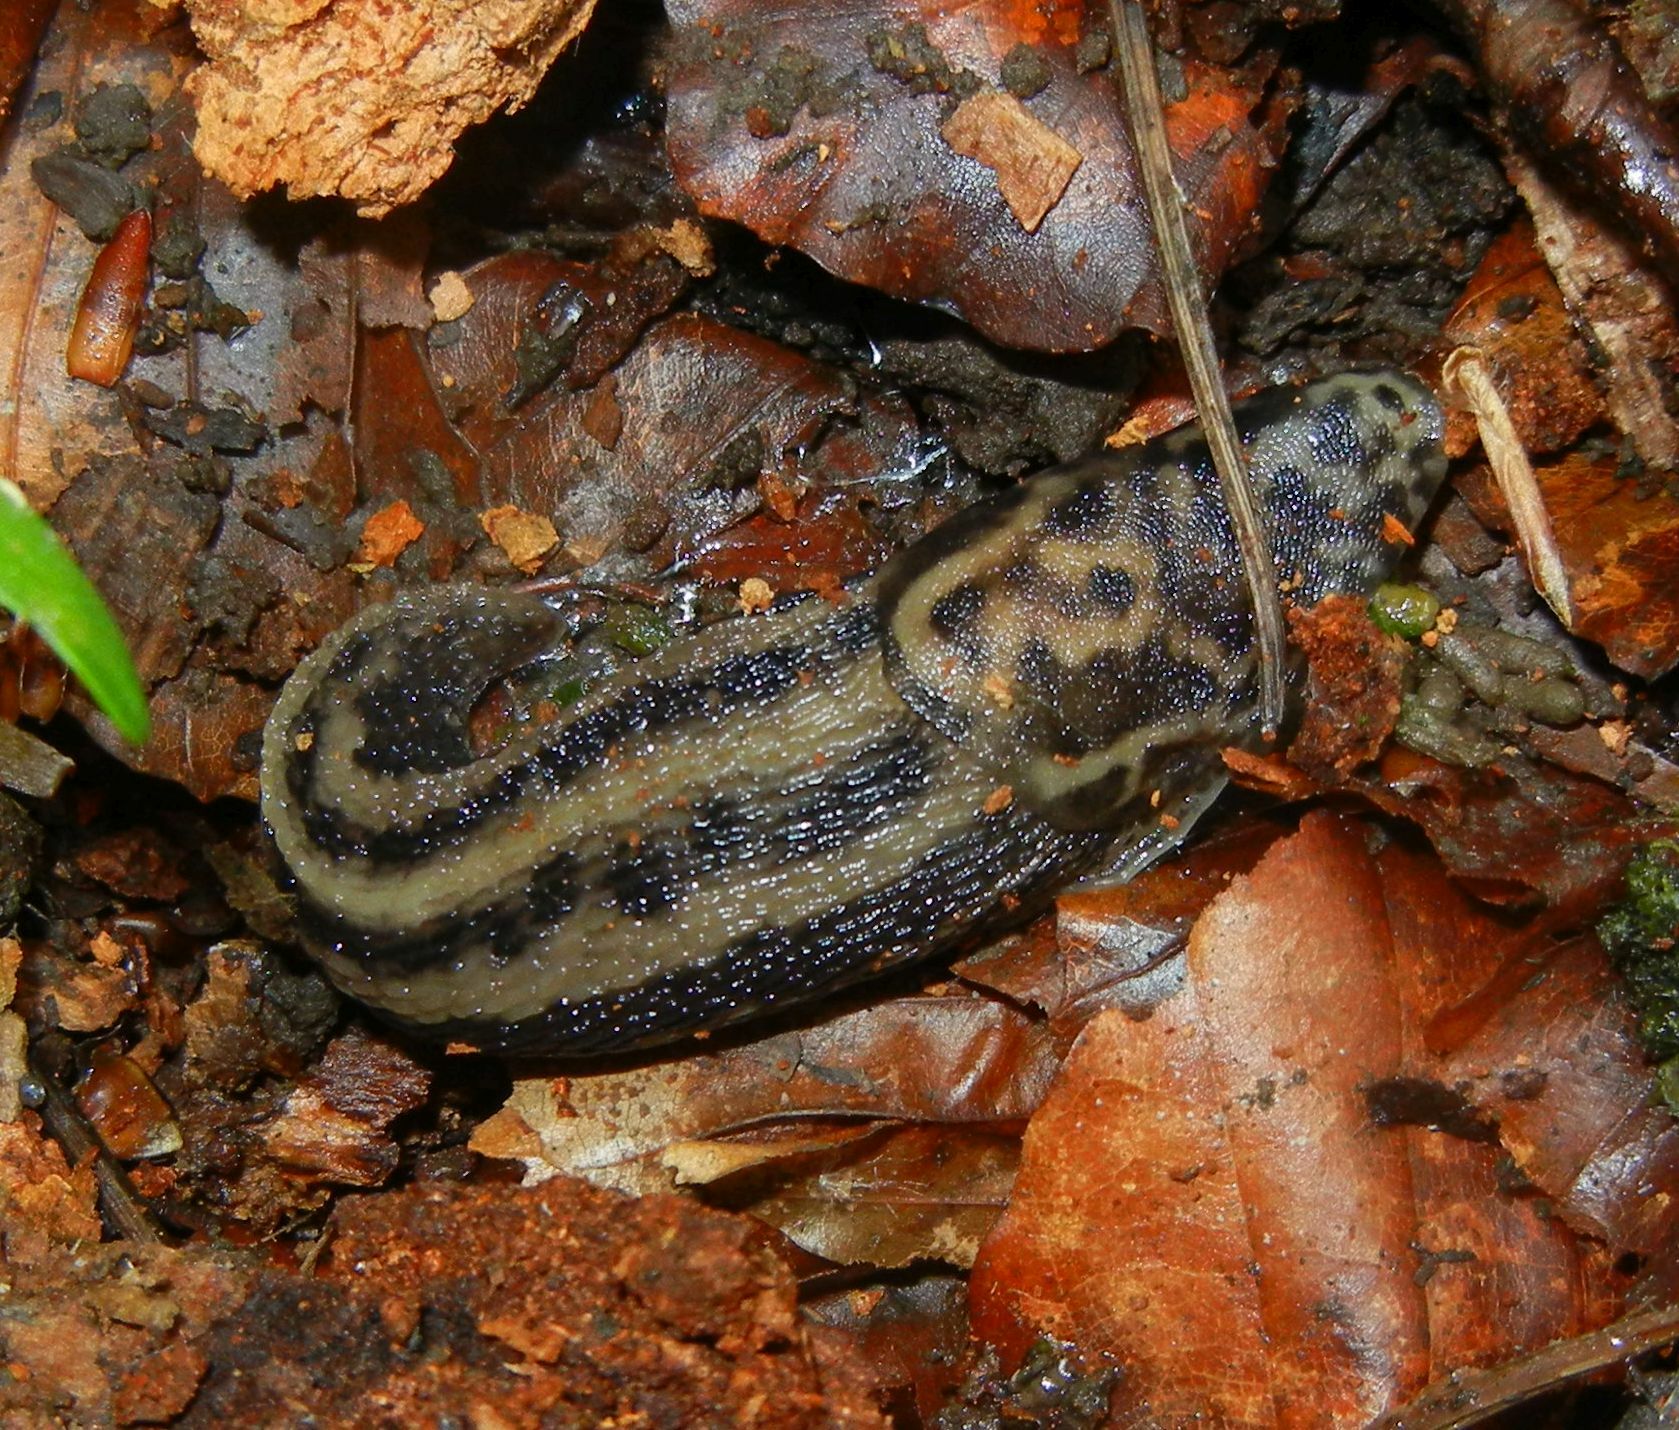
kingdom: Animalia
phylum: Mollusca
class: Gastropoda
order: Stylommatophora
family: Limacidae
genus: Limax
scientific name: Limax maximus
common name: Great grey slug
